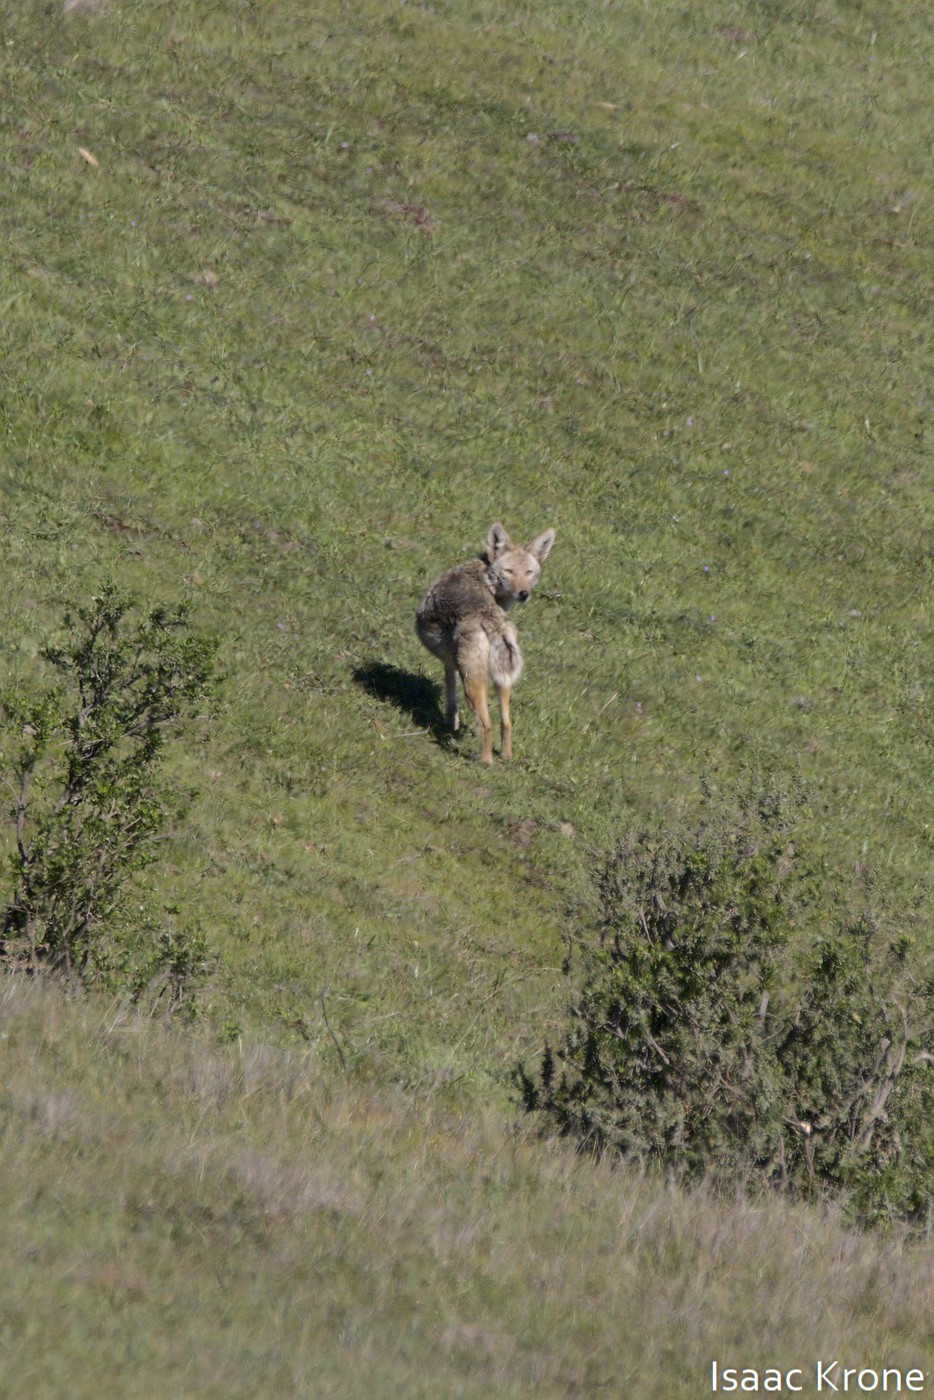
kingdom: Animalia
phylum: Chordata
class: Mammalia
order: Carnivora
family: Canidae
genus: Canis
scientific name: Canis latrans
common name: Coyote
